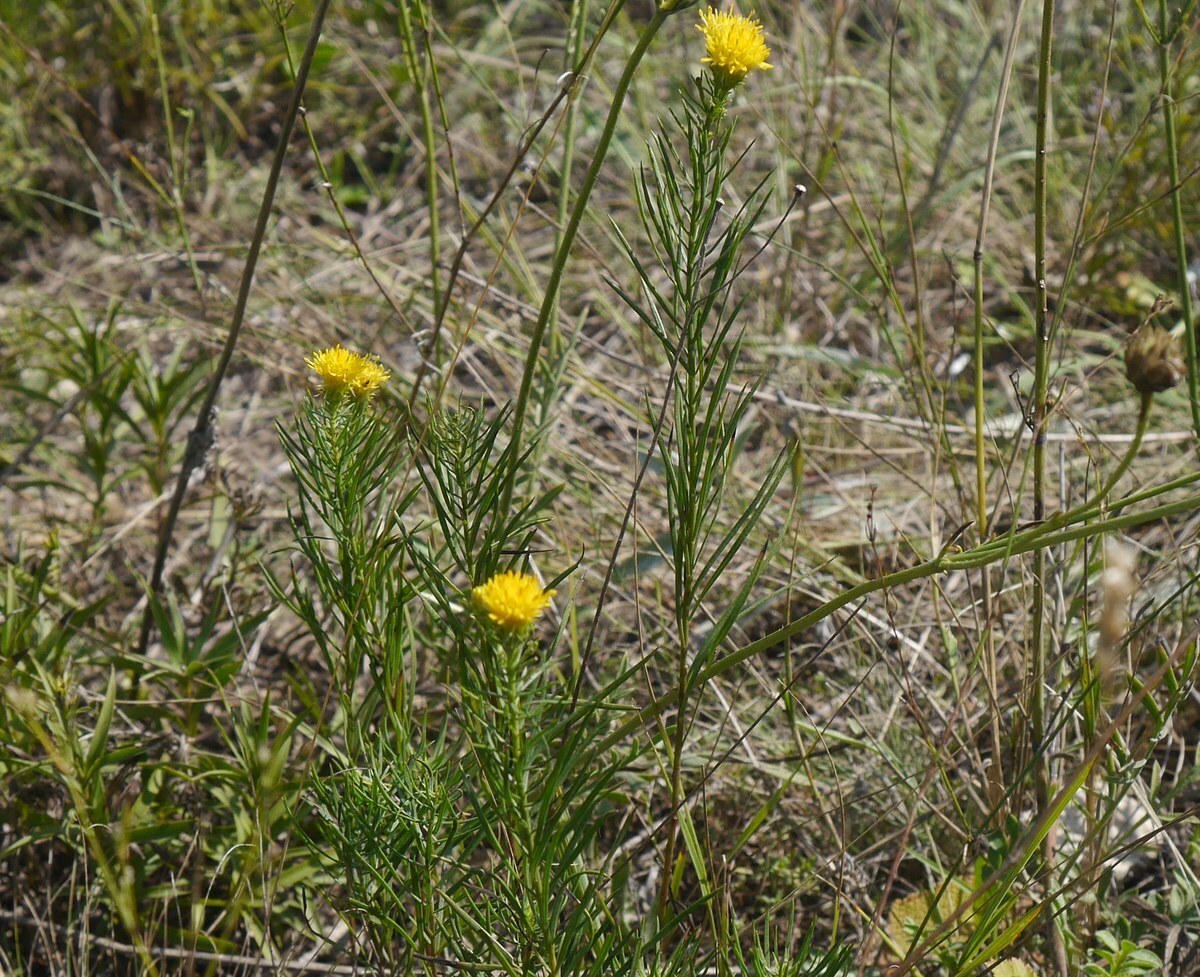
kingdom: Plantae
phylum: Tracheophyta
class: Magnoliopsida
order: Asterales
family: Asteraceae
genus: Galatella
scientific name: Galatella linosyris
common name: Goldilocks aster
